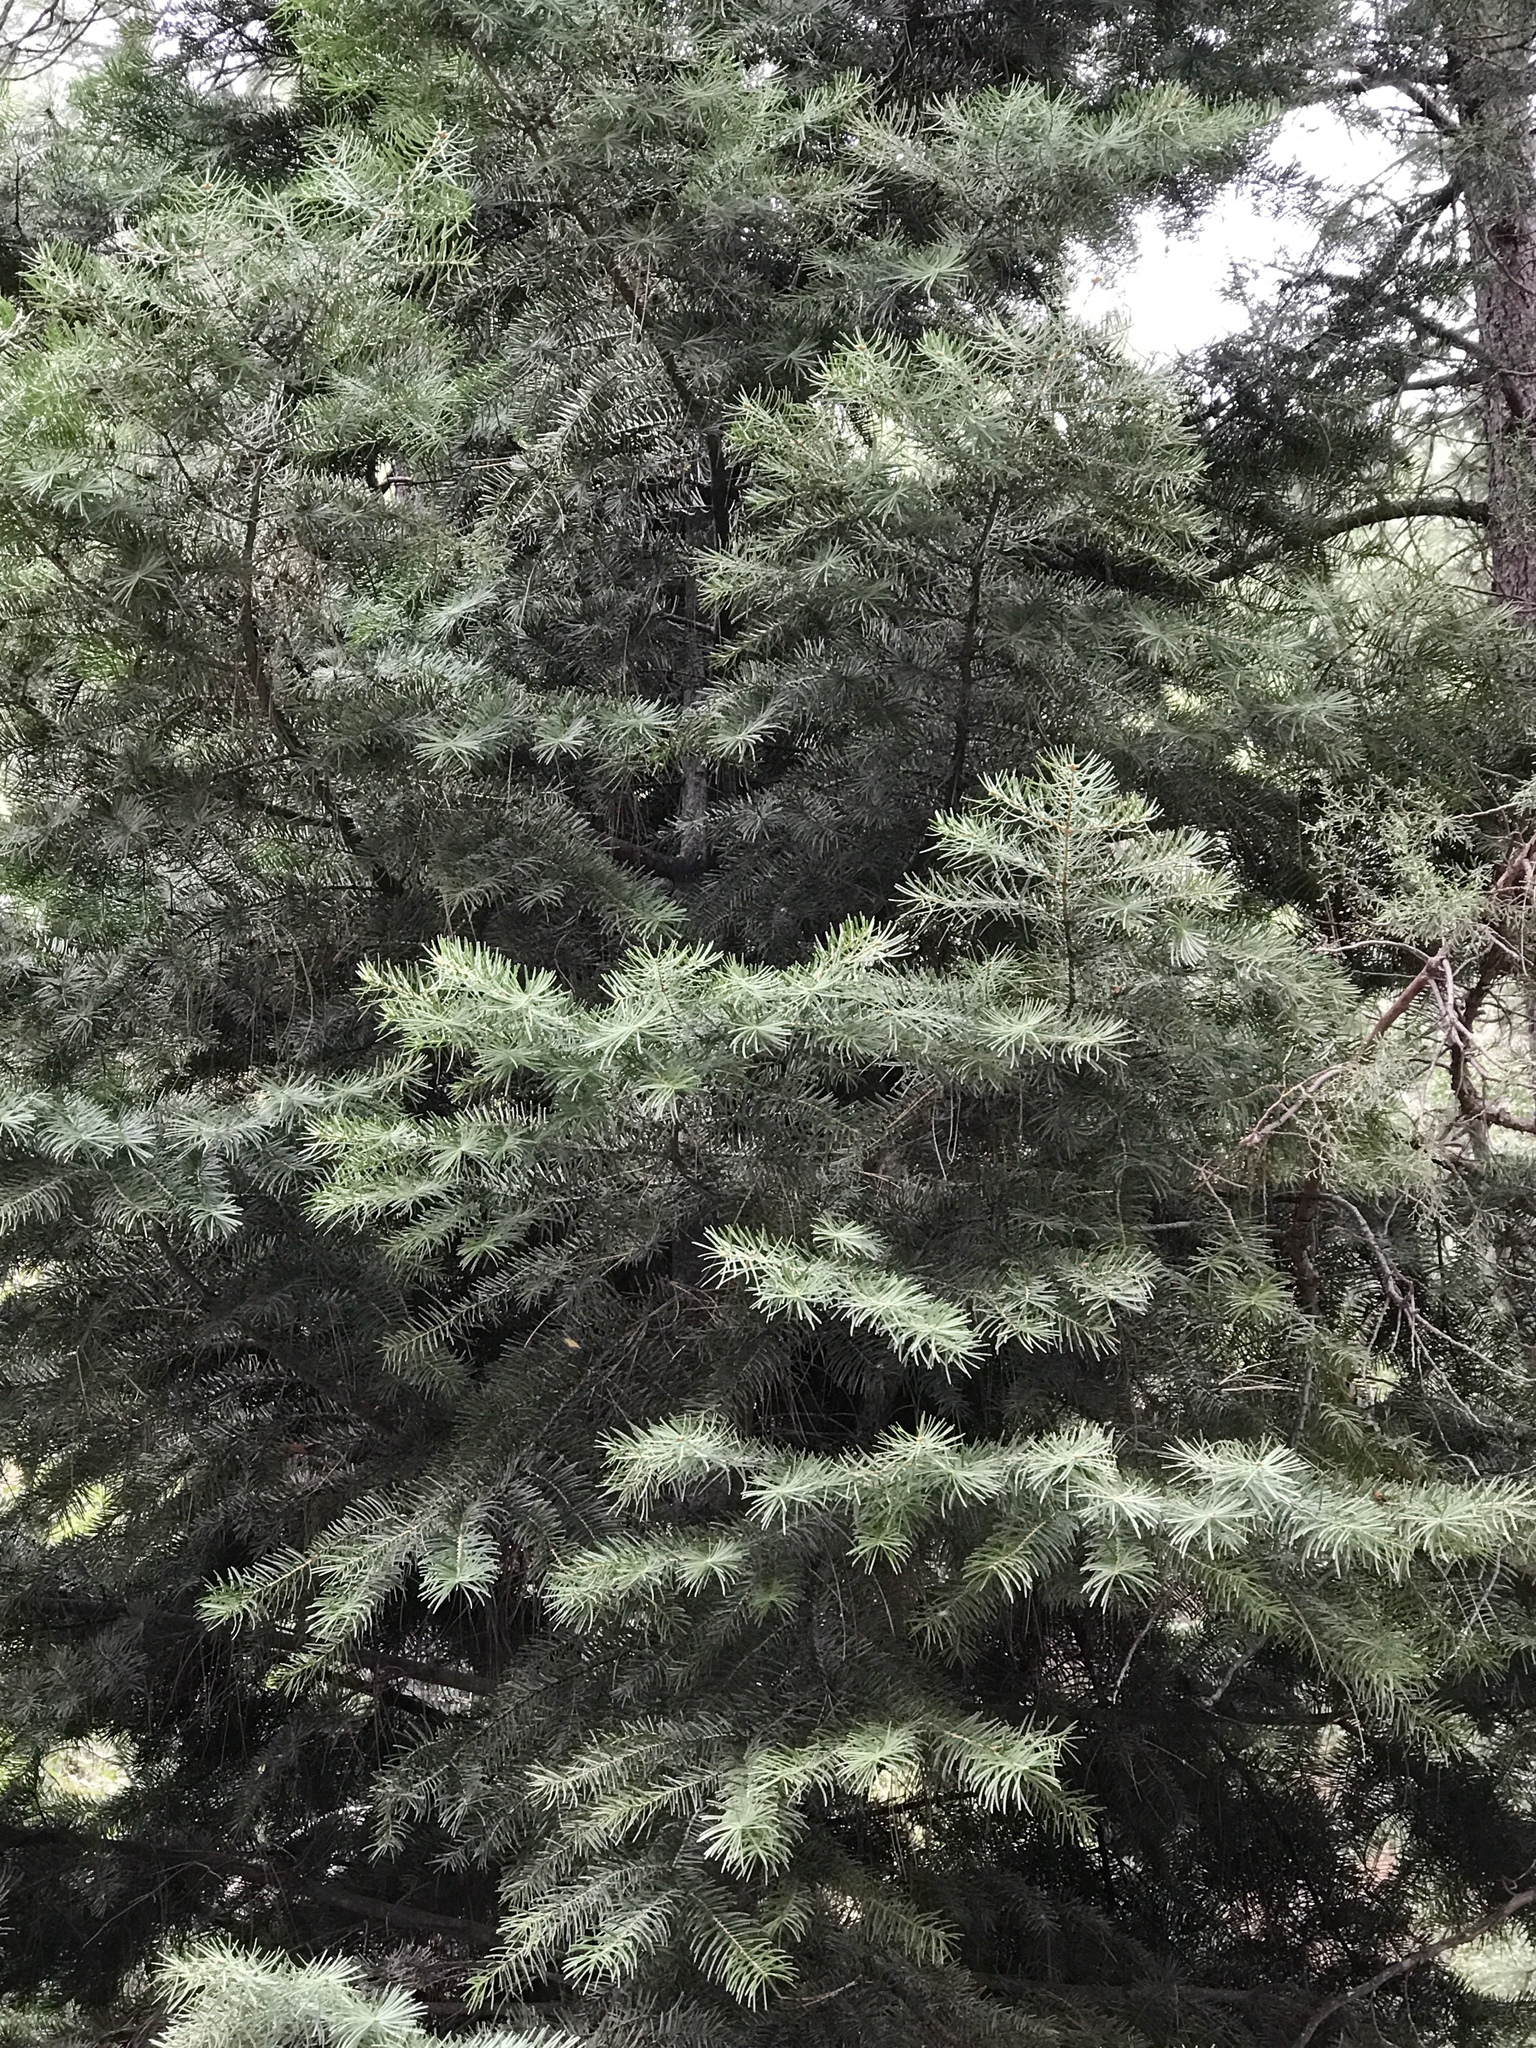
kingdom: Plantae
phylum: Tracheophyta
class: Pinopsida
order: Pinales
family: Pinaceae
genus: Abies
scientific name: Abies concolor
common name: Colorado fir
